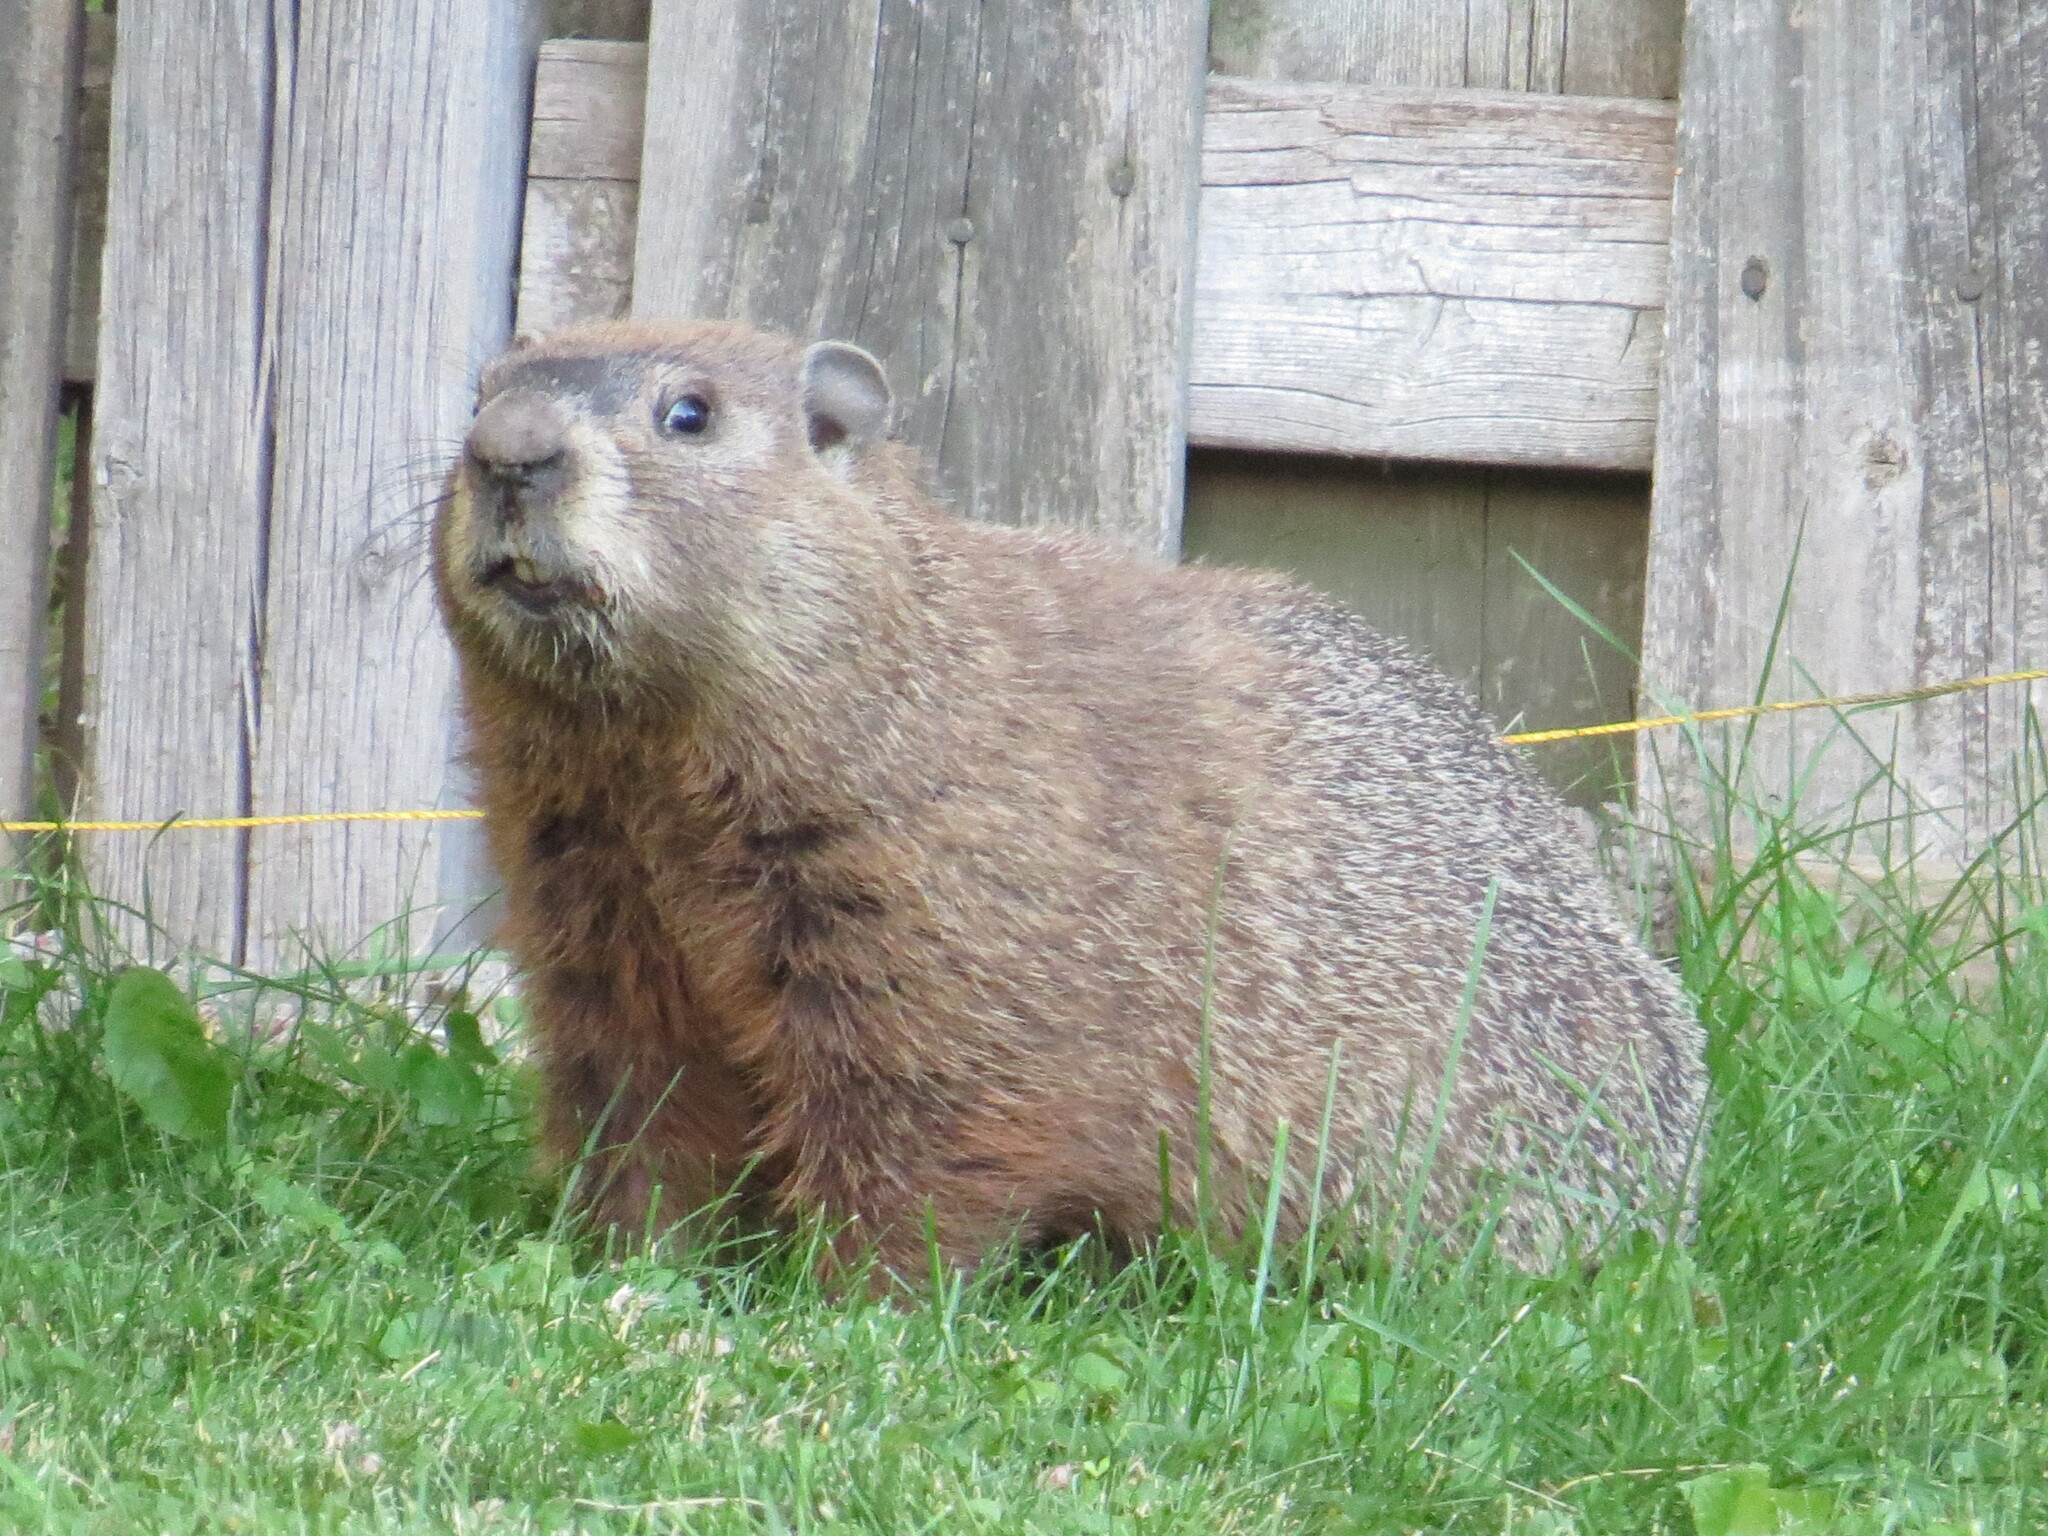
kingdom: Animalia
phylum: Chordata
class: Mammalia
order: Rodentia
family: Sciuridae
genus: Marmota
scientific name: Marmota monax
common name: Groundhog
